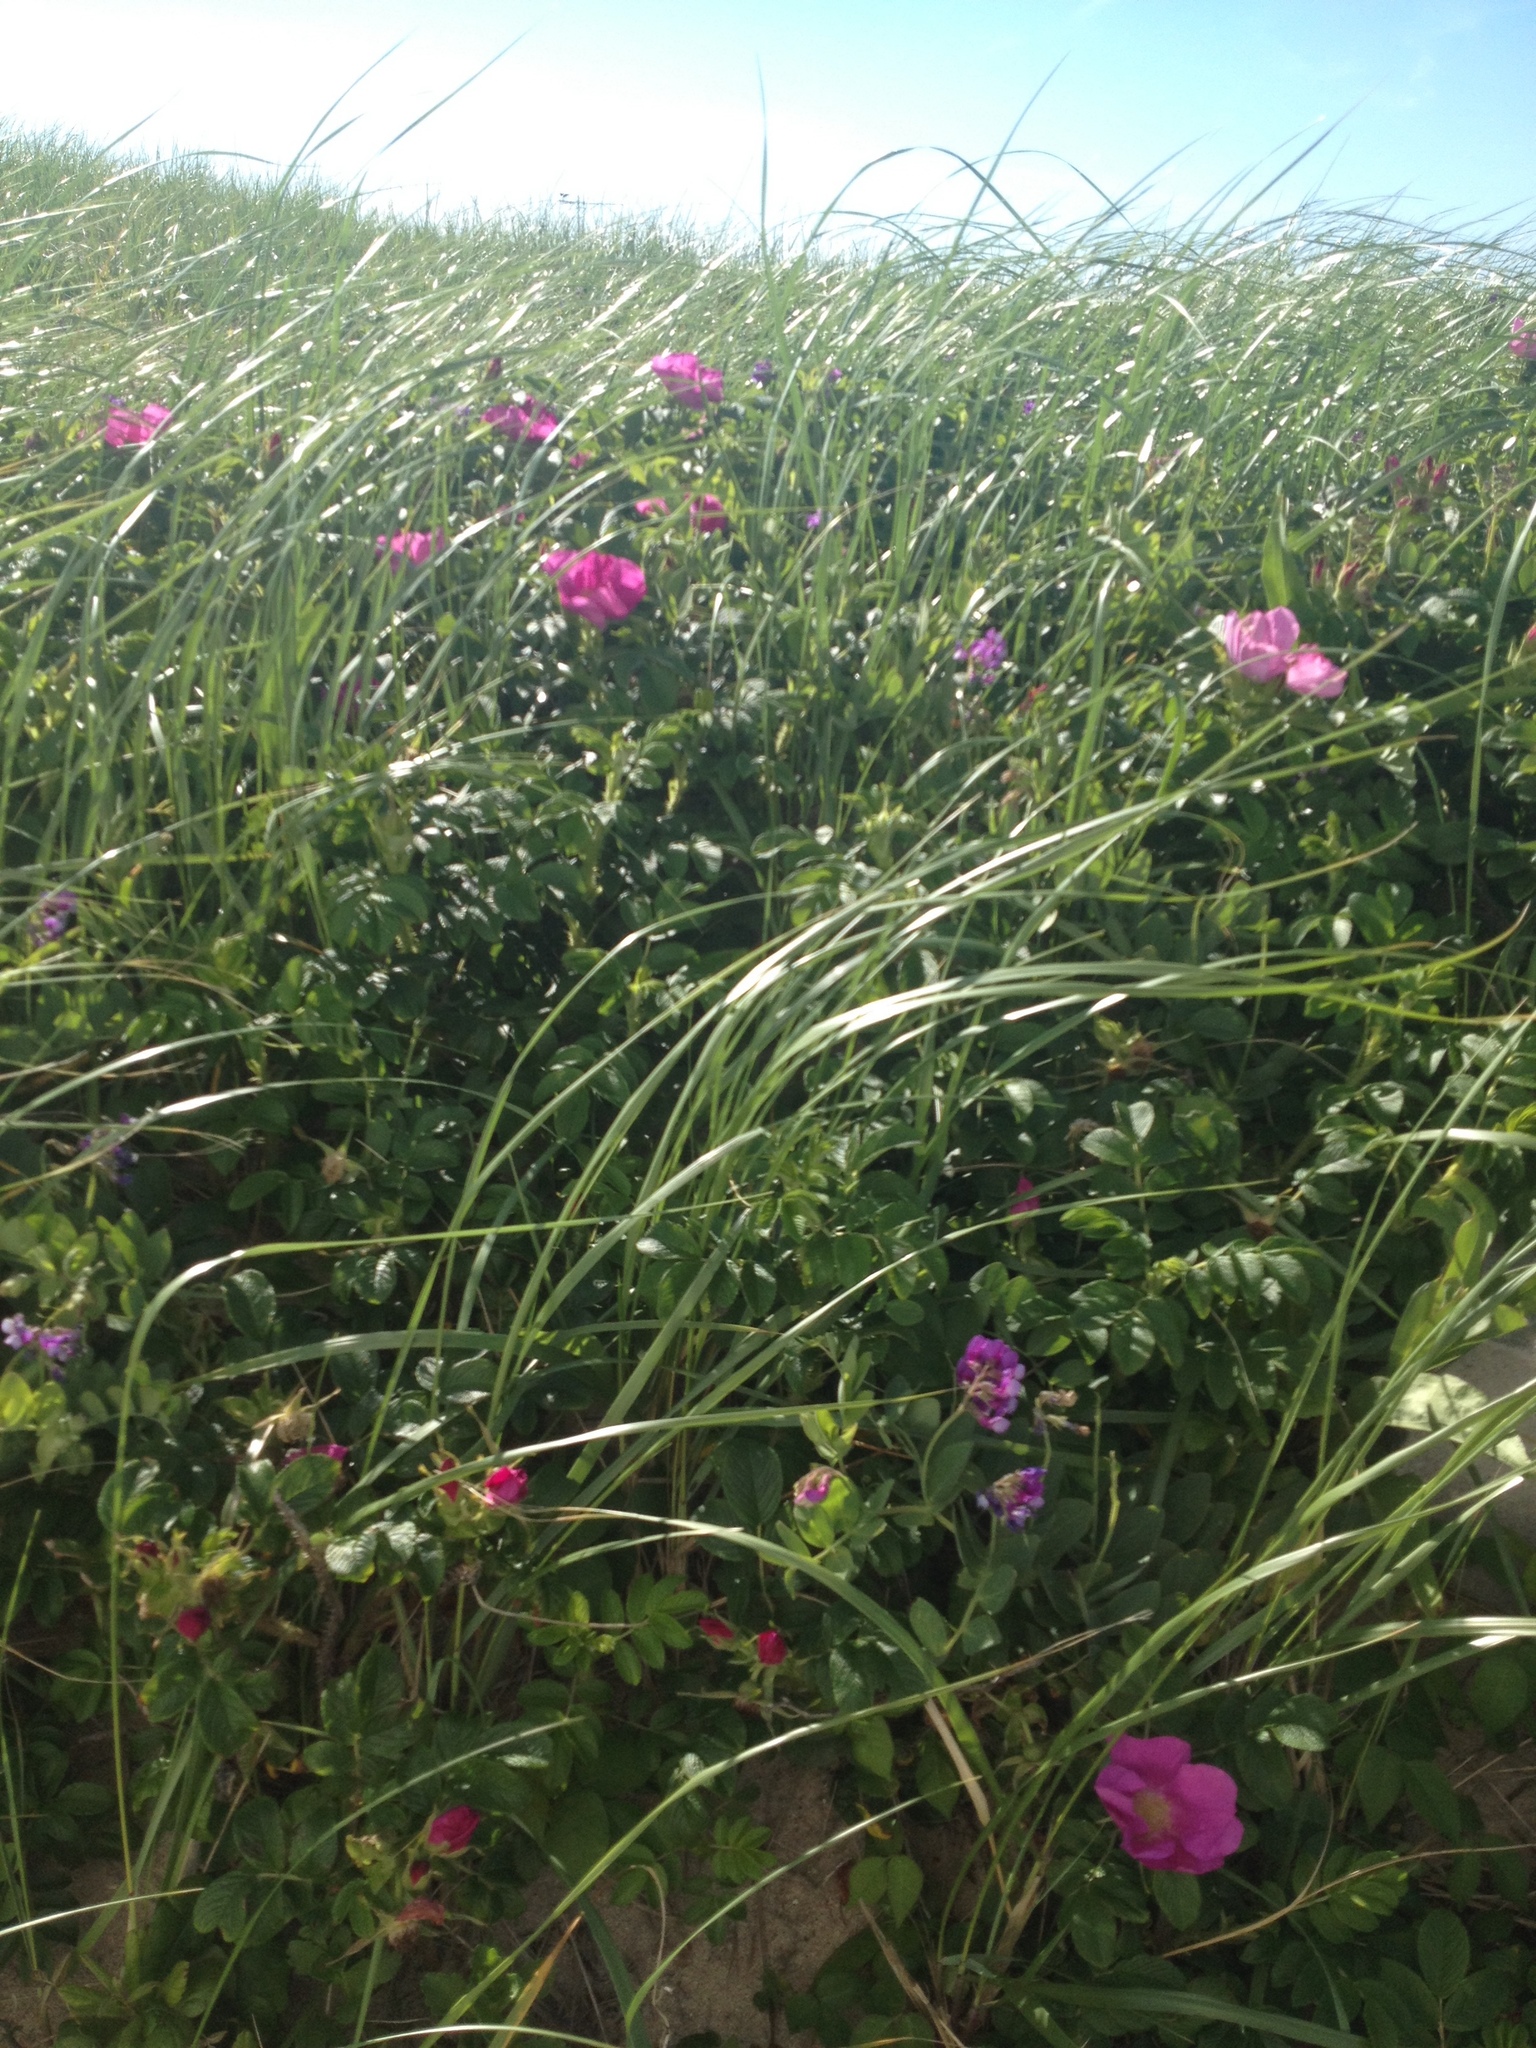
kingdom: Plantae
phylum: Tracheophyta
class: Magnoliopsida
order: Rosales
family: Rosaceae
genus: Rosa
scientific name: Rosa rugosa
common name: Japanese rose
